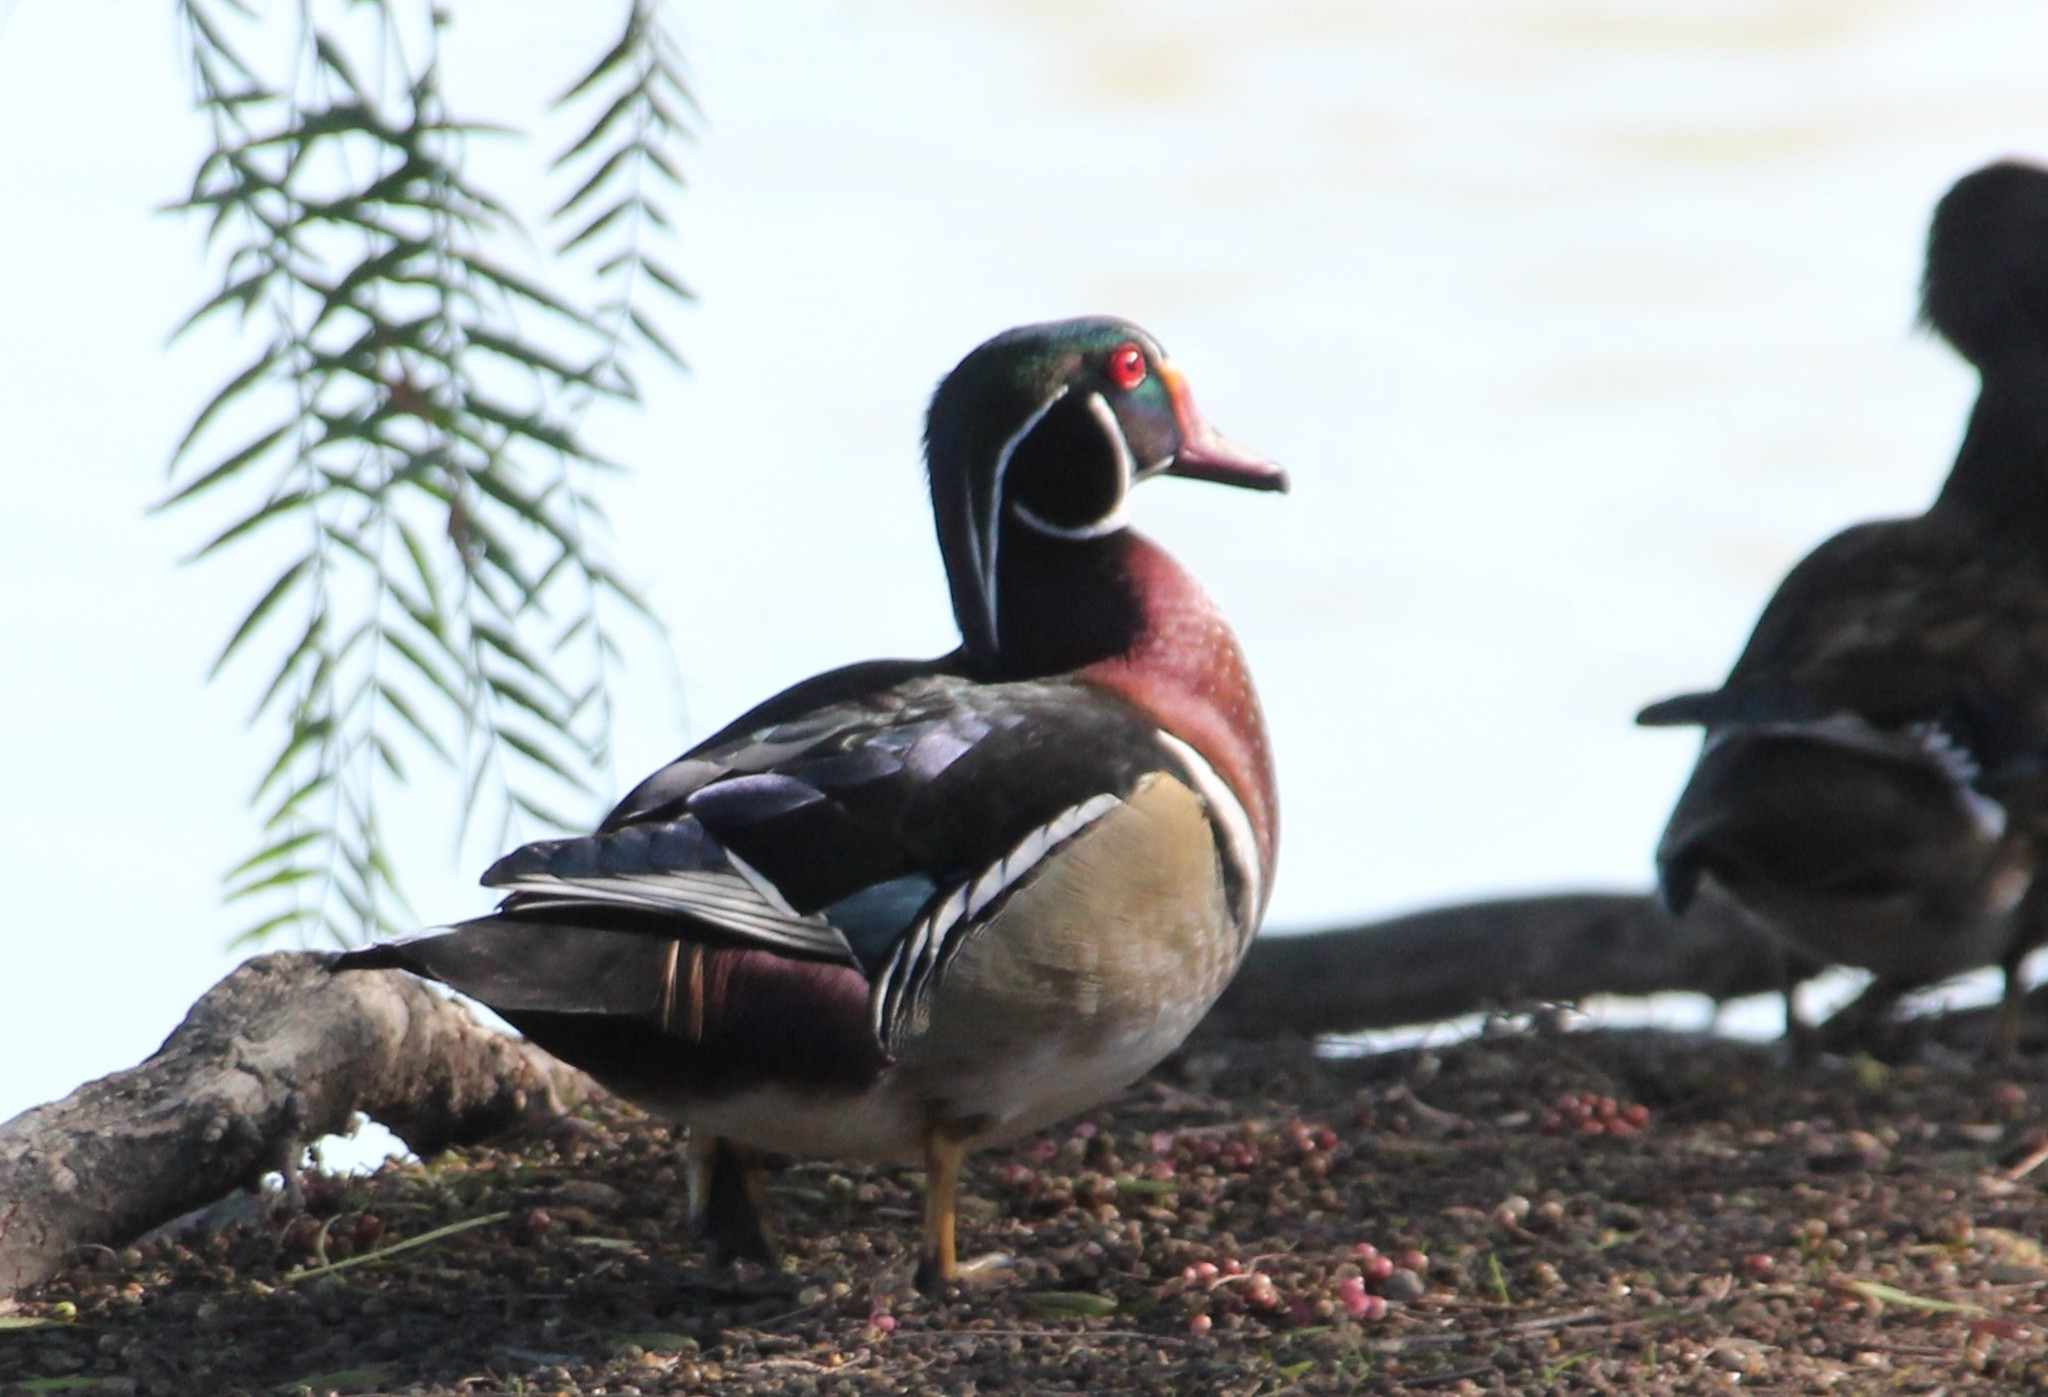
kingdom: Animalia
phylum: Chordata
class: Aves
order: Anseriformes
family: Anatidae
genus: Aix
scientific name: Aix sponsa
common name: Wood duck
